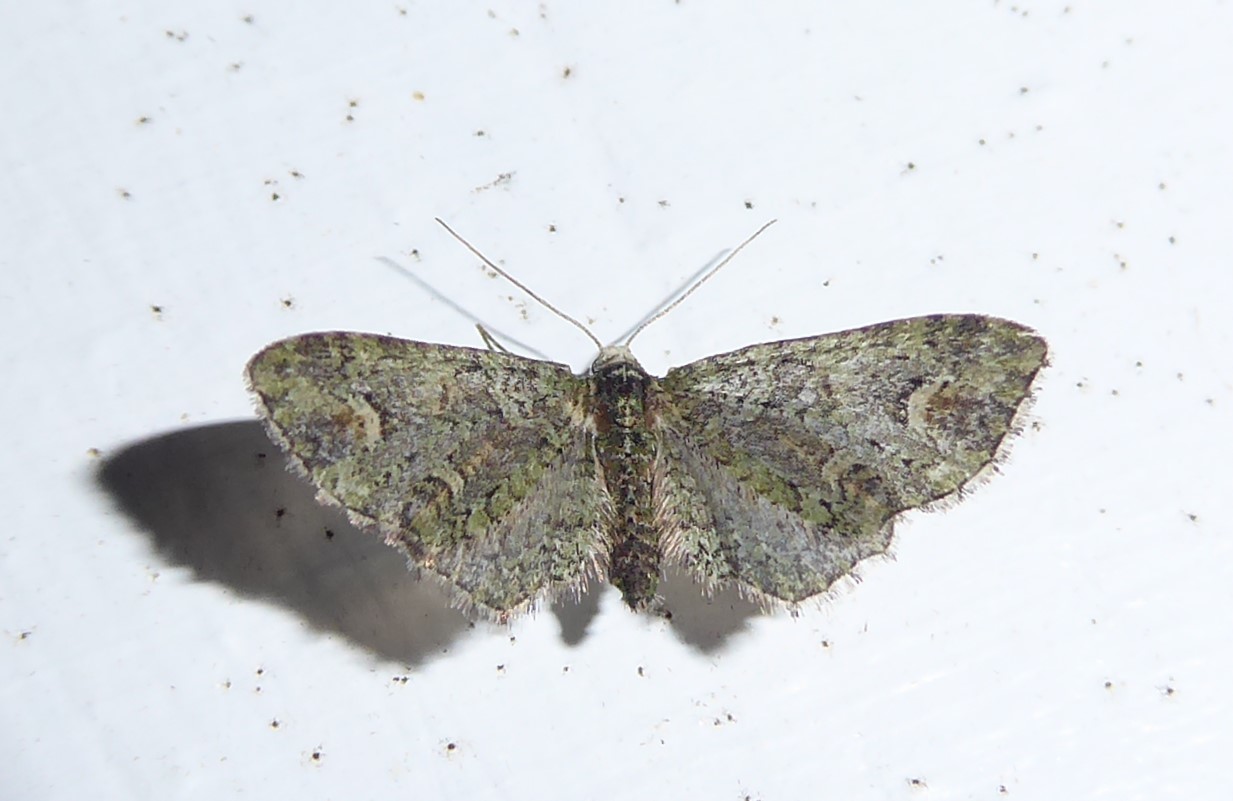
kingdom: Animalia
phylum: Arthropoda
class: Insecta
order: Lepidoptera
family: Geometridae
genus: Idaea
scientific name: Idaea mutanda
